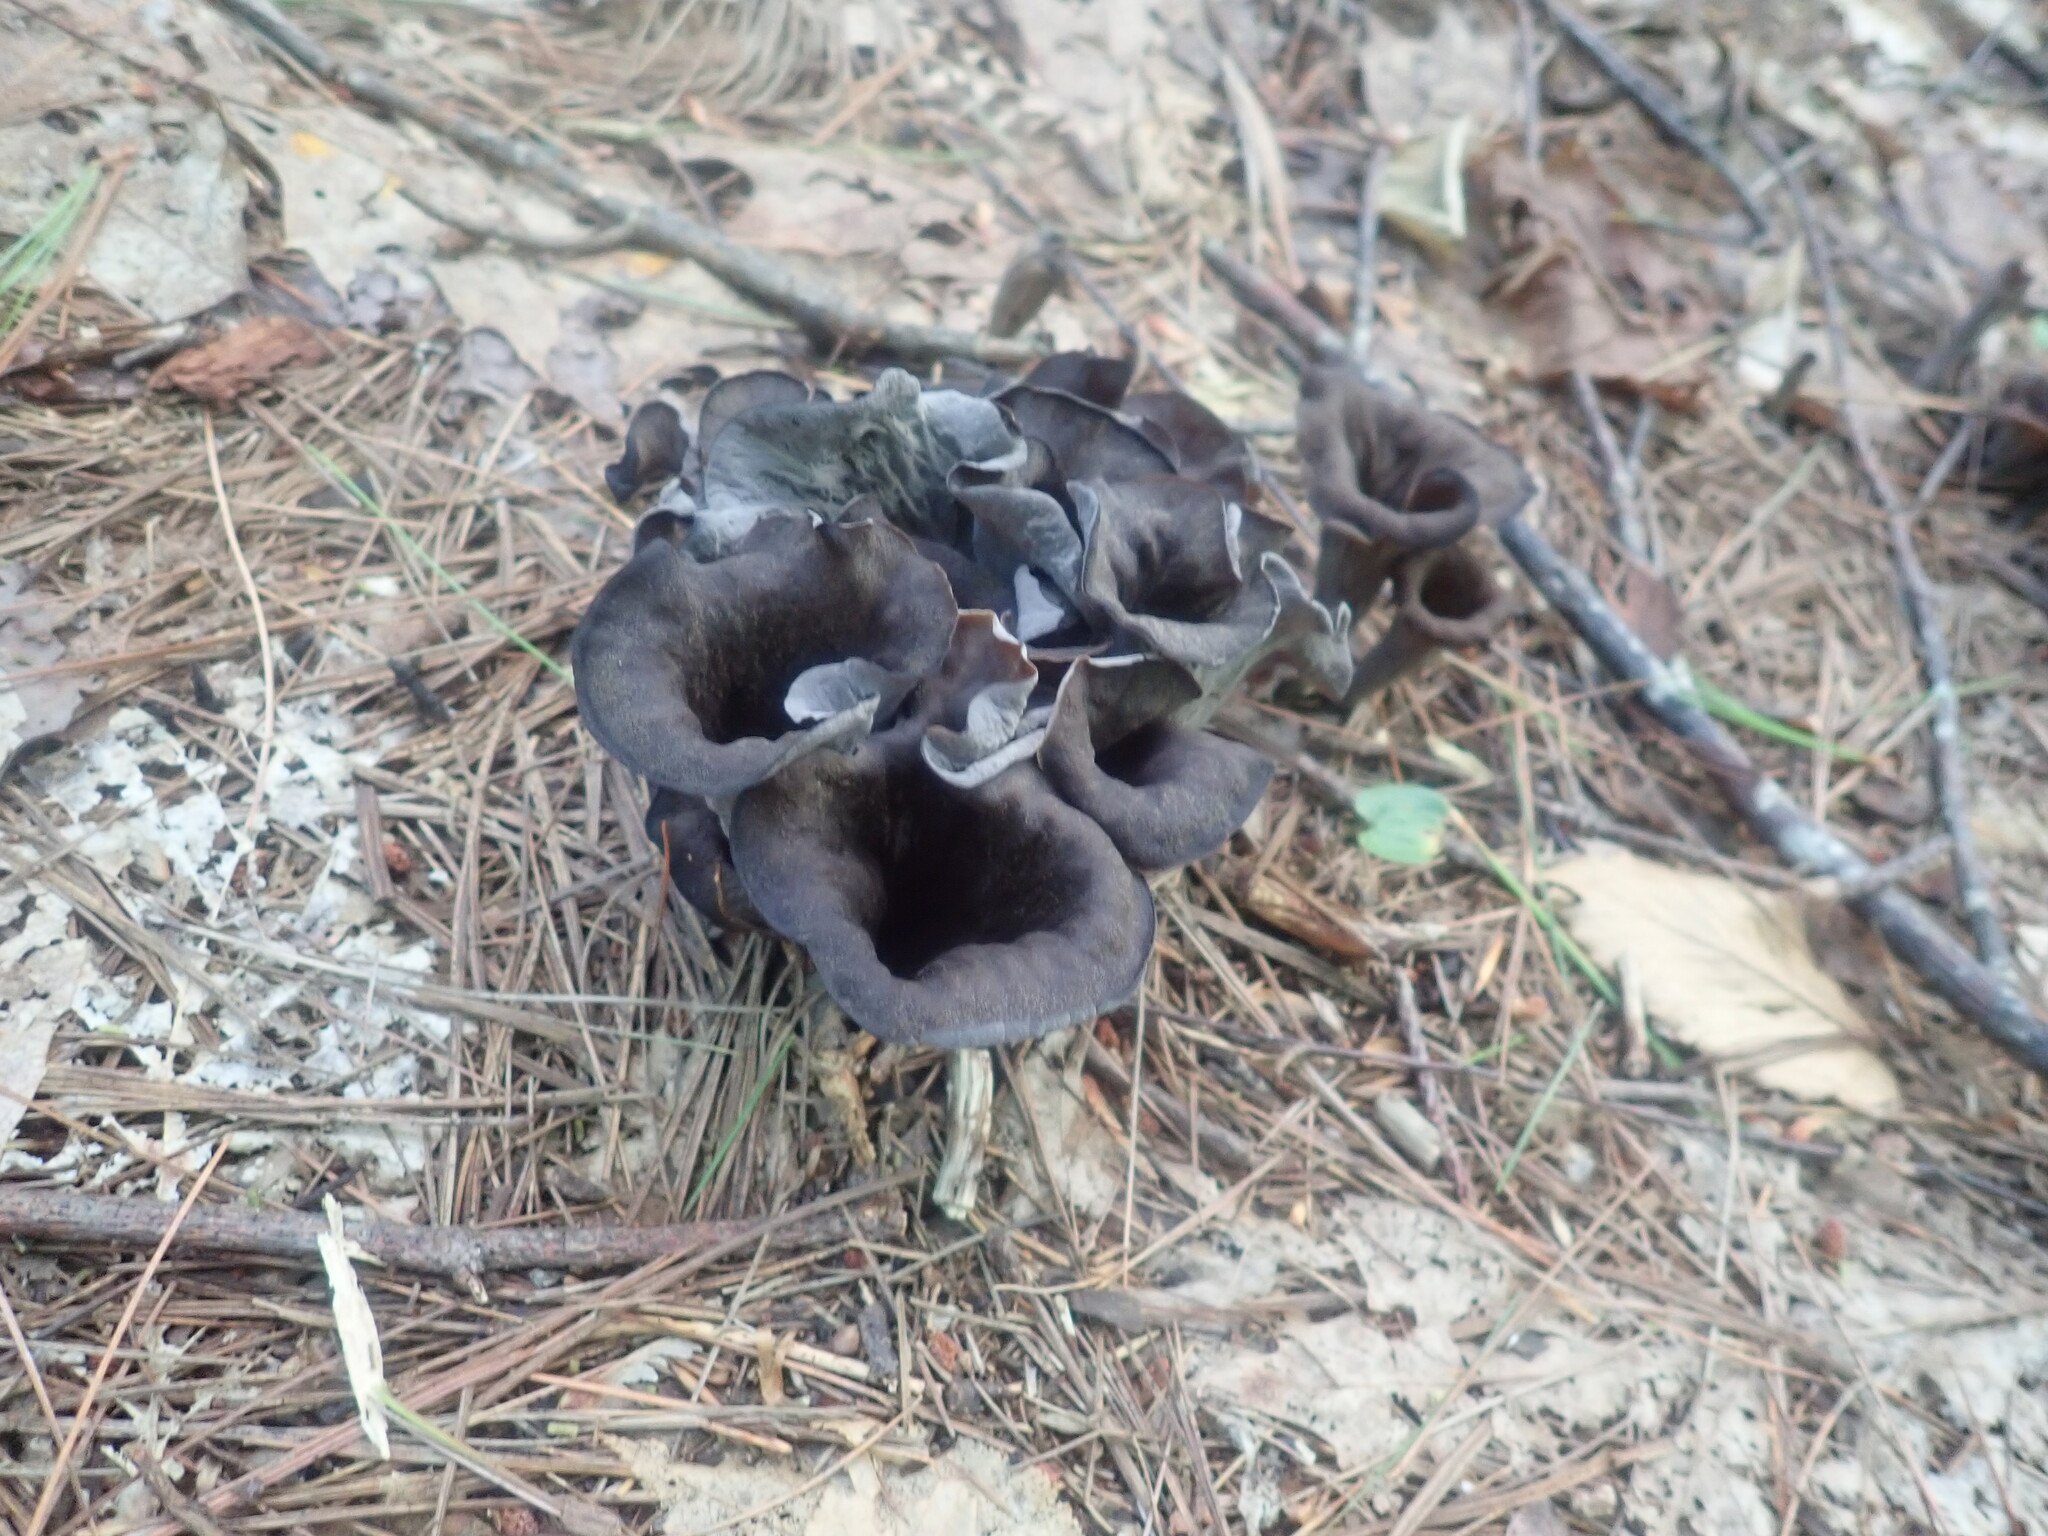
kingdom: Fungi
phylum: Basidiomycota
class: Agaricomycetes
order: Cantharellales
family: Hydnaceae
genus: Craterellus
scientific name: Craterellus cornucopioides
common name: Horn of plenty
